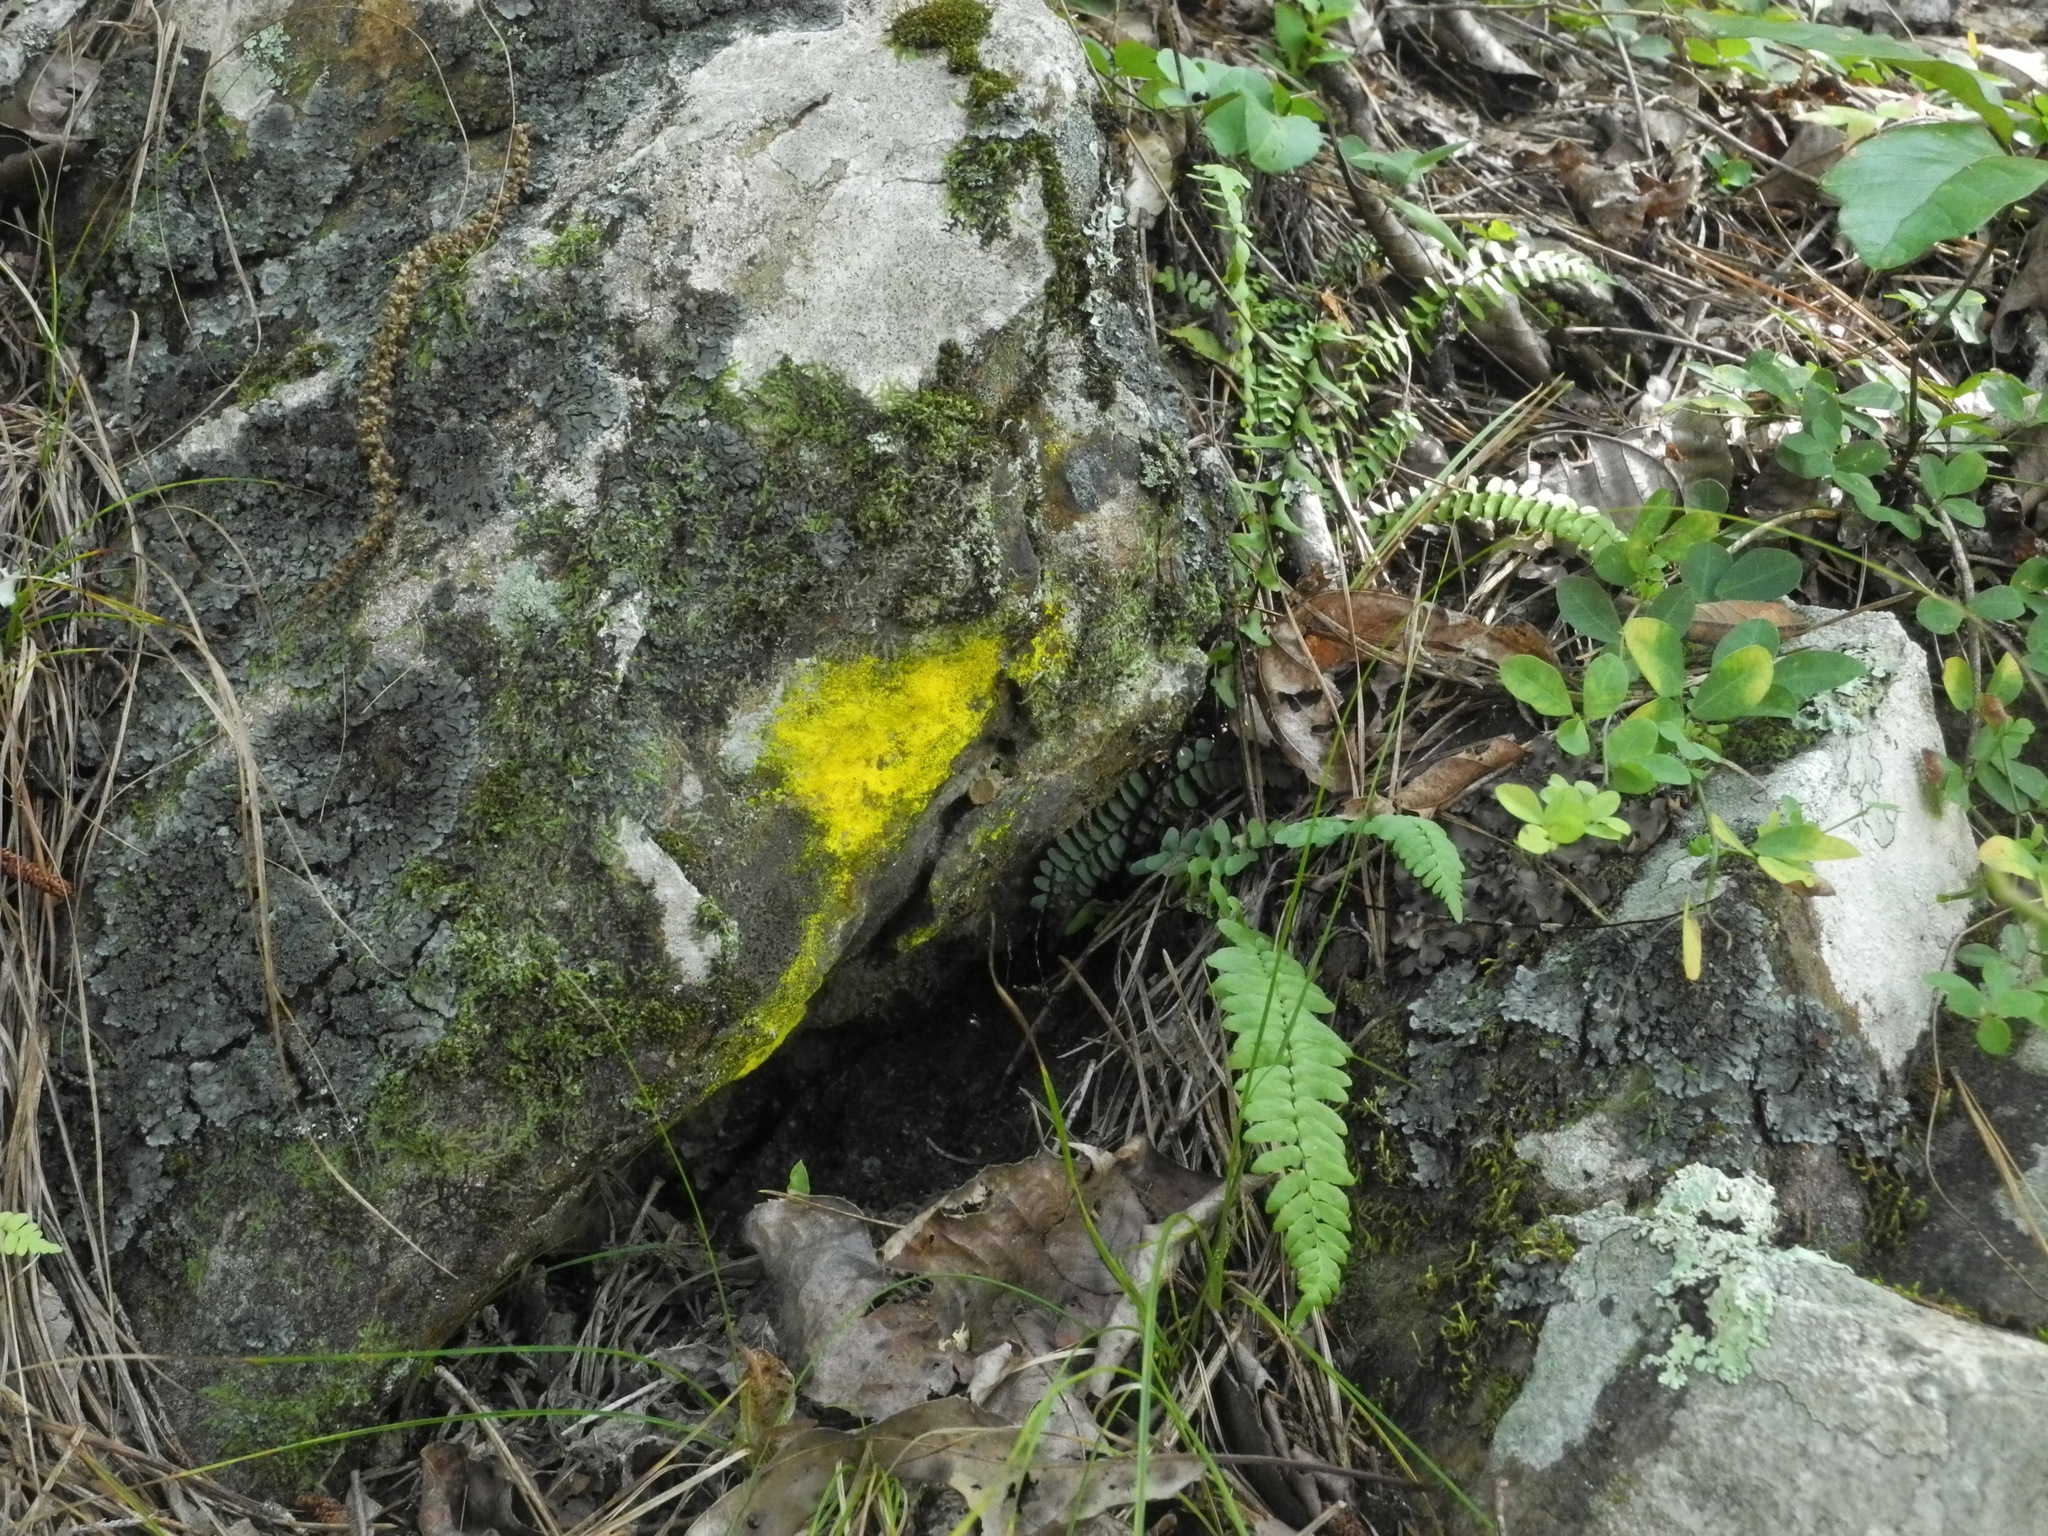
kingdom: Plantae
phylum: Tracheophyta
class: Polypodiopsida
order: Polypodiales
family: Aspleniaceae
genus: Asplenium
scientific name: Asplenium platyneuron
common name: Ebony spleenwort
